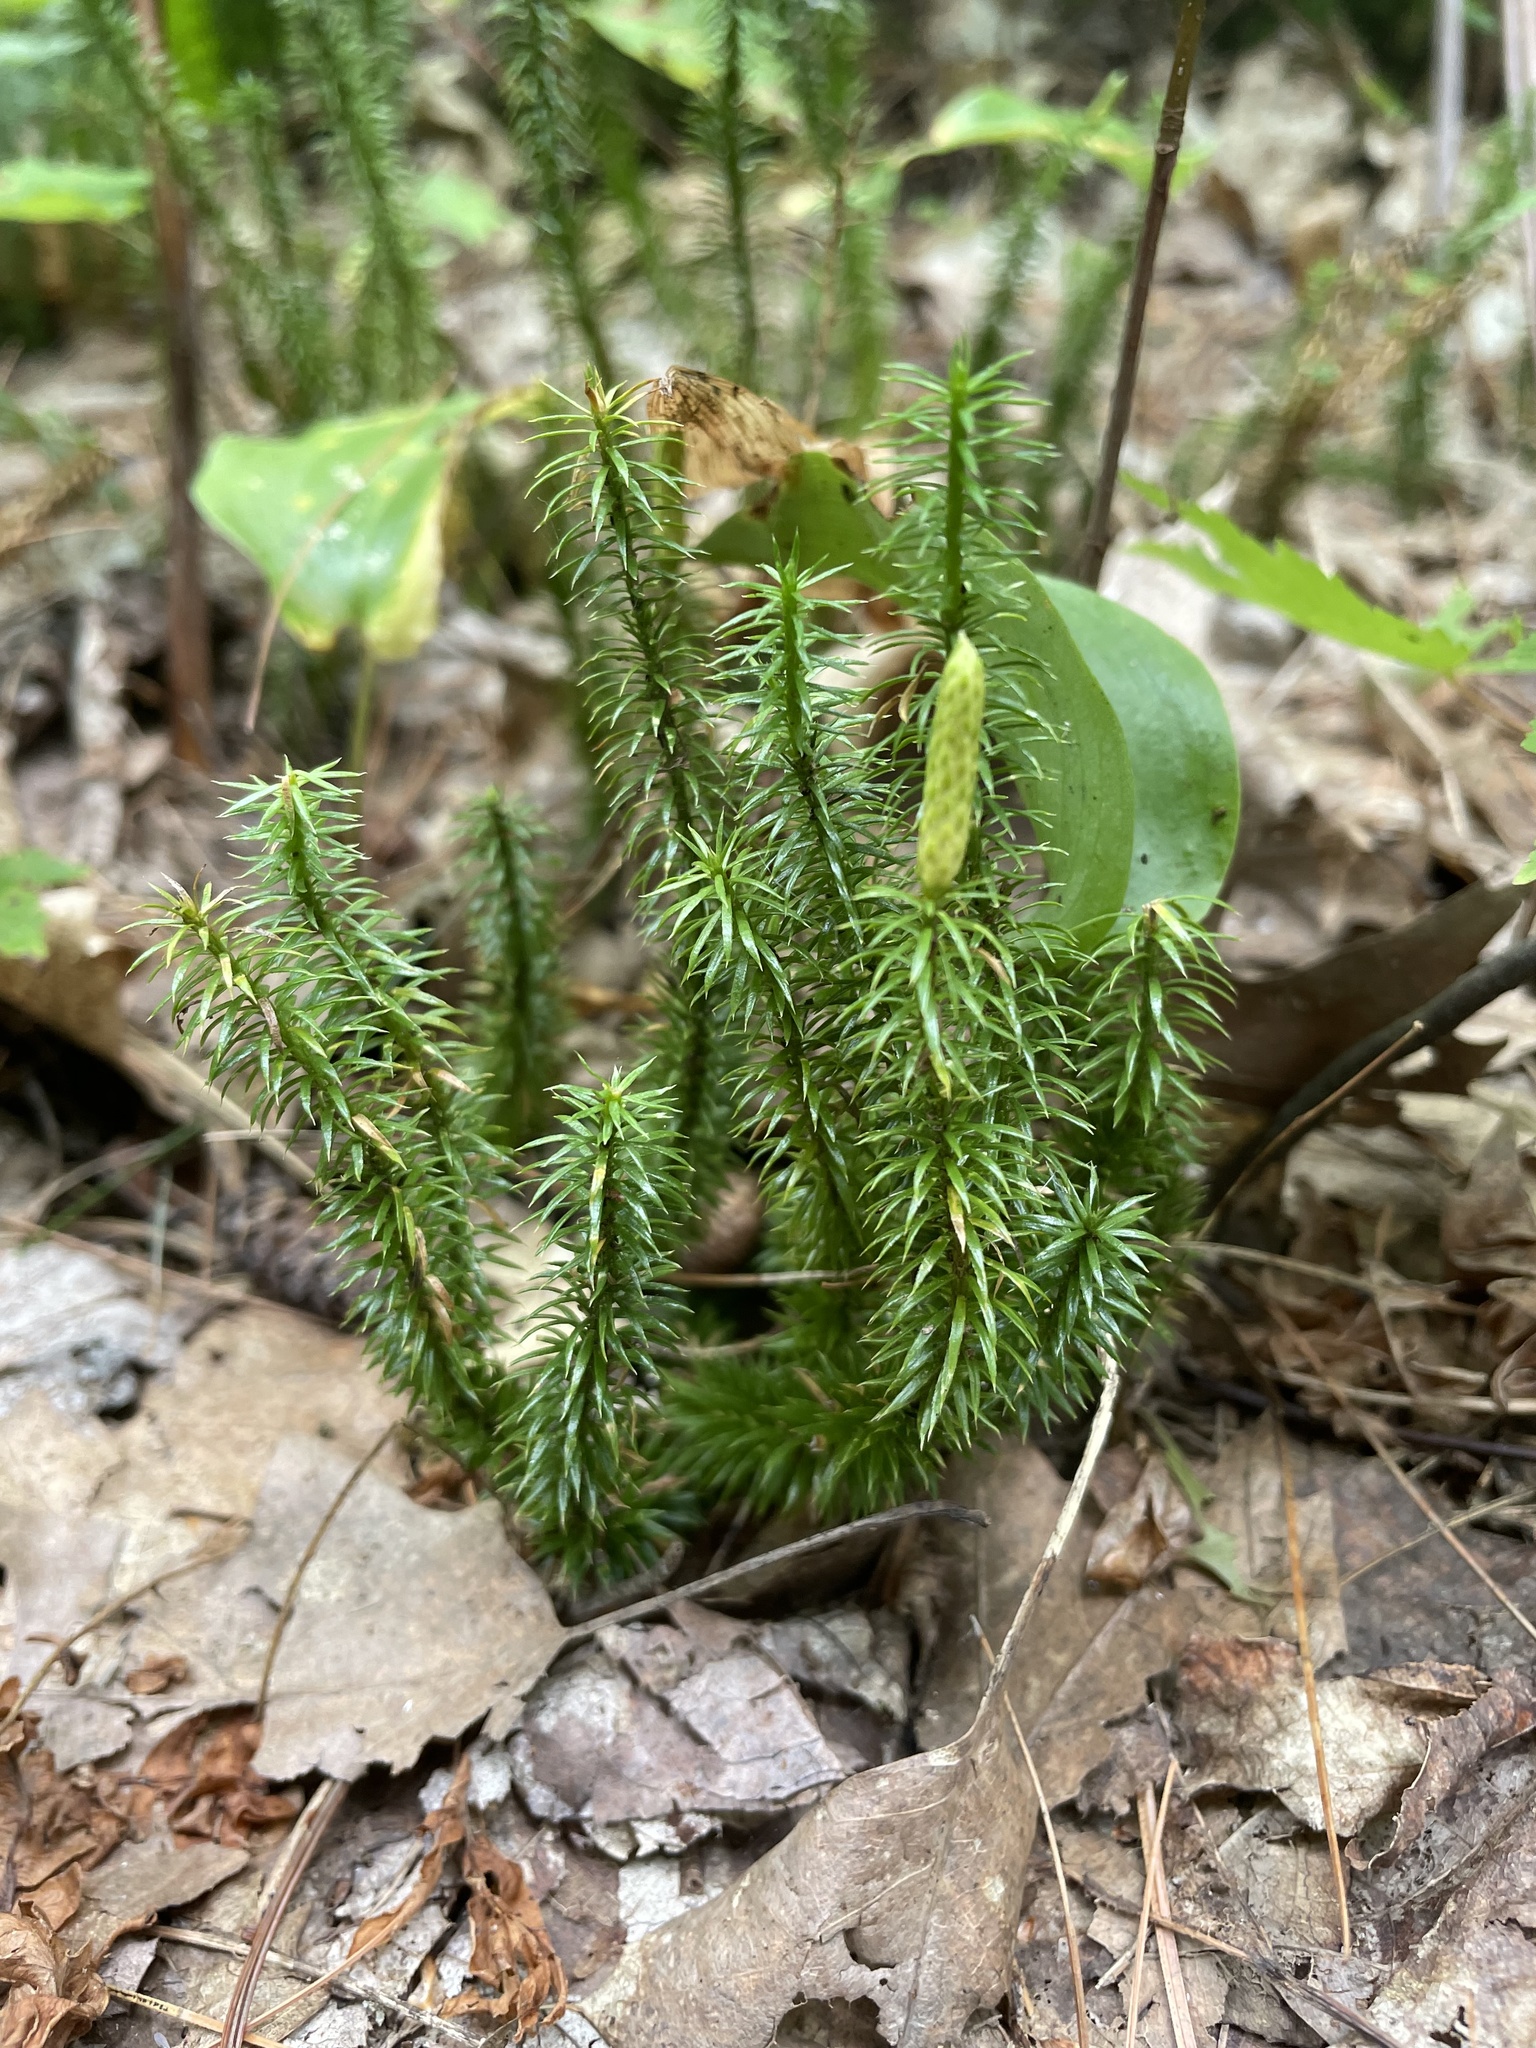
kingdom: Plantae
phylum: Tracheophyta
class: Lycopodiopsida
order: Lycopodiales
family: Lycopodiaceae
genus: Spinulum
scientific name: Spinulum annotinum
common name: Interrupted club-moss
